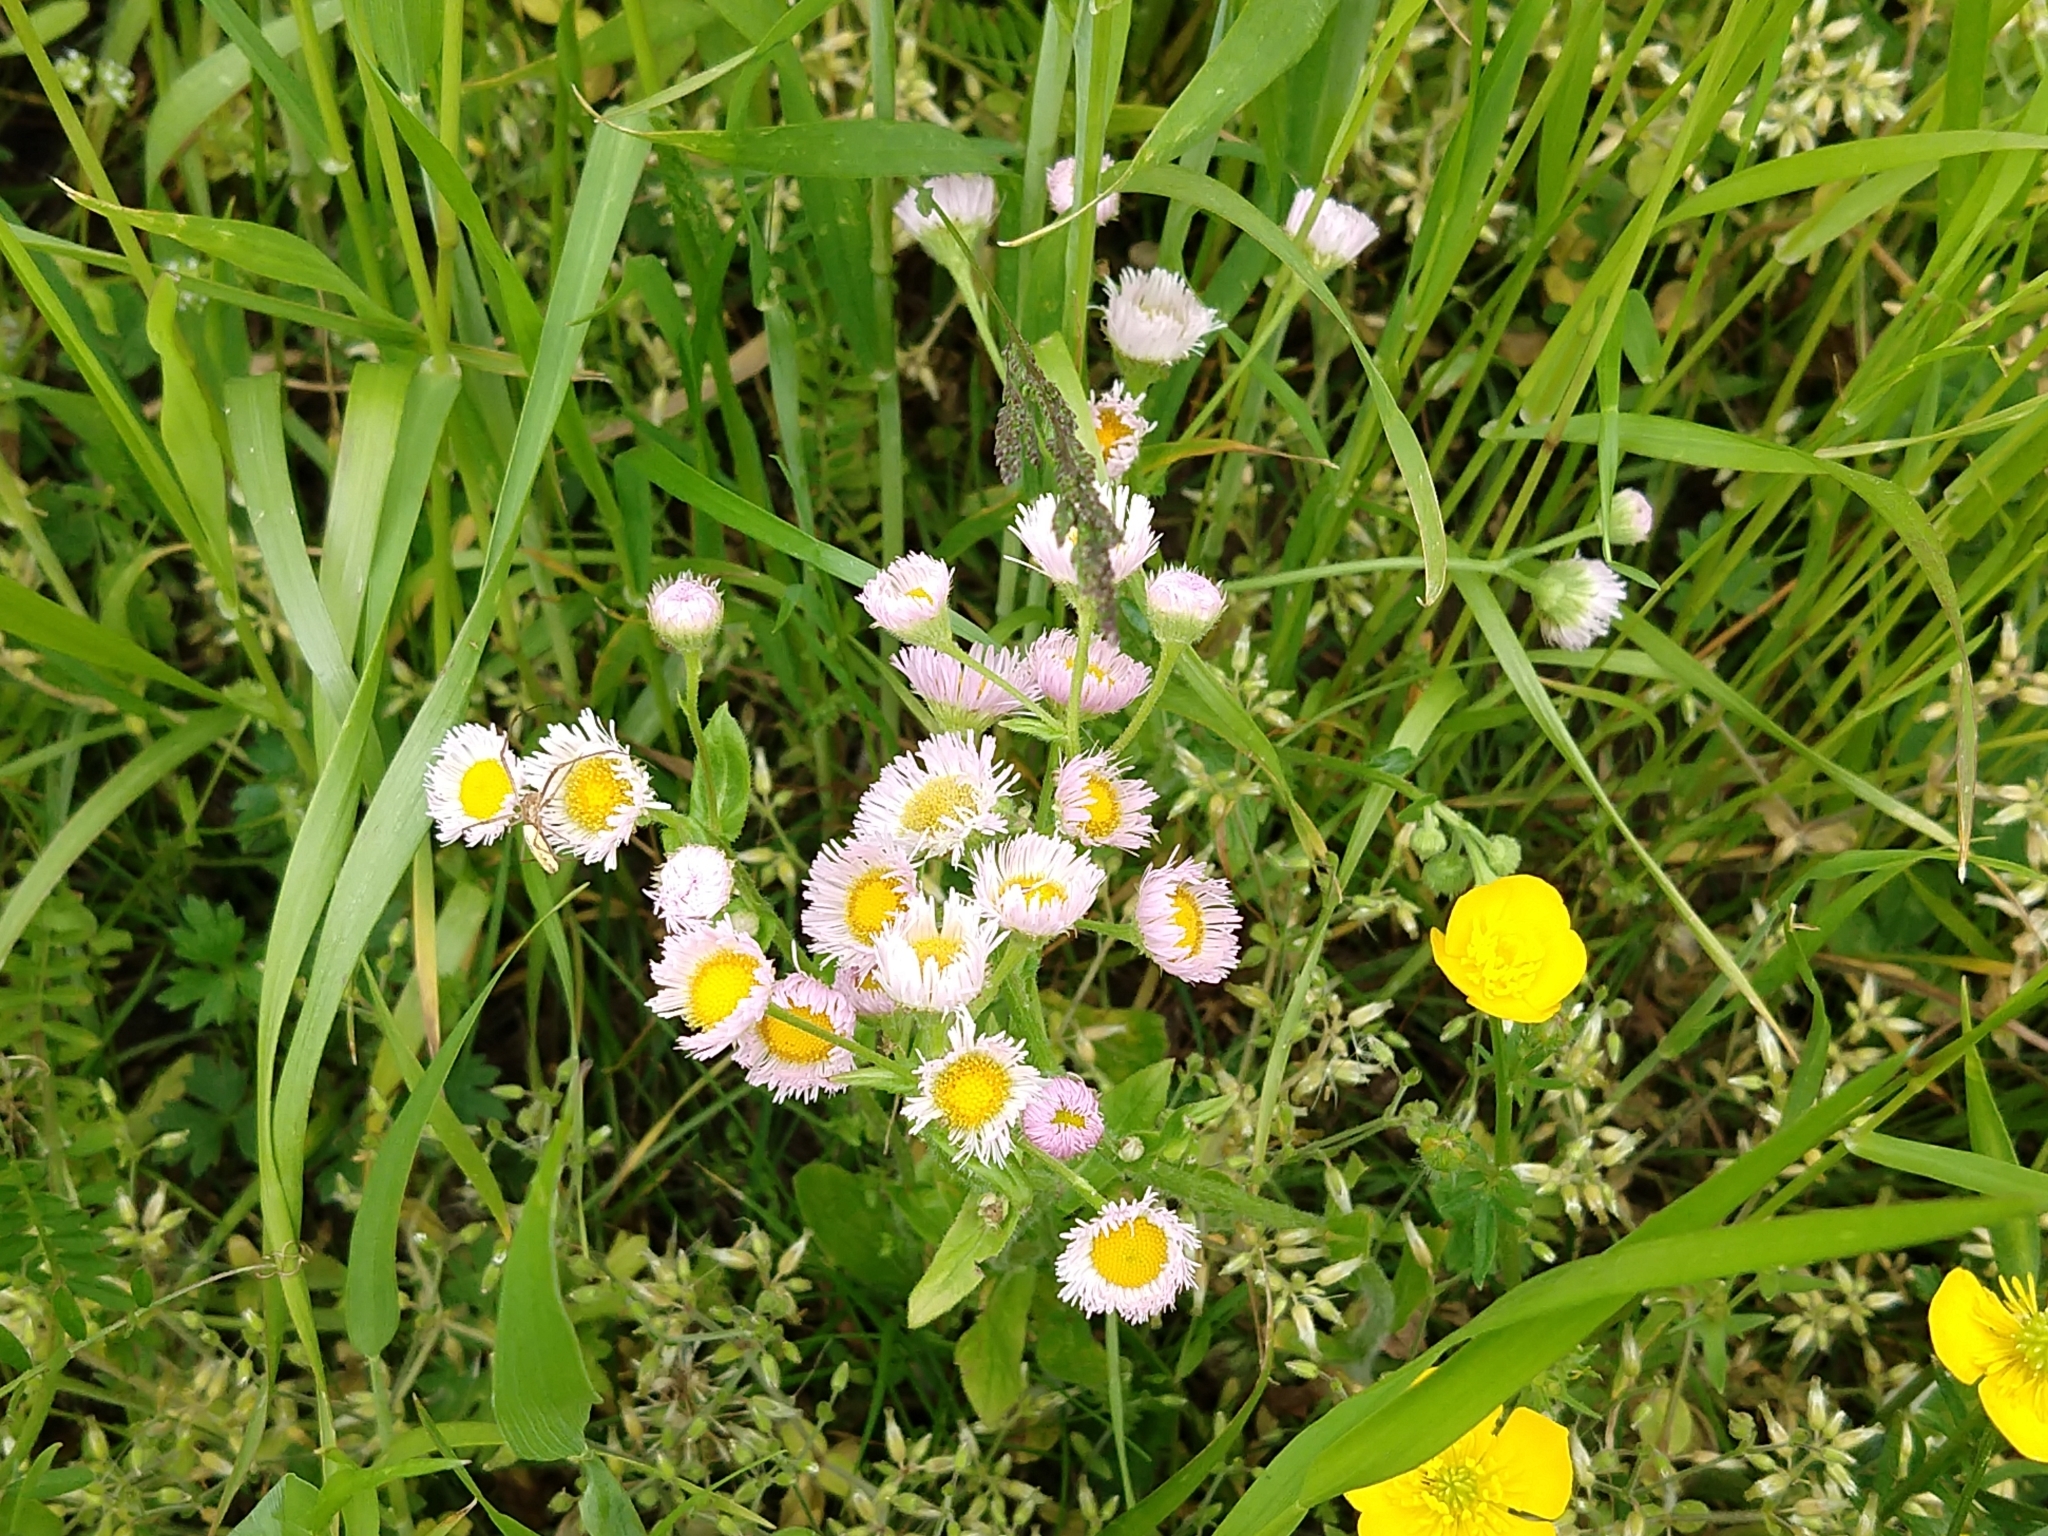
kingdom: Plantae
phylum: Tracheophyta
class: Magnoliopsida
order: Asterales
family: Asteraceae
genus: Erigeron
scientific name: Erigeron philadelphicus
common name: Robin's-plantain
